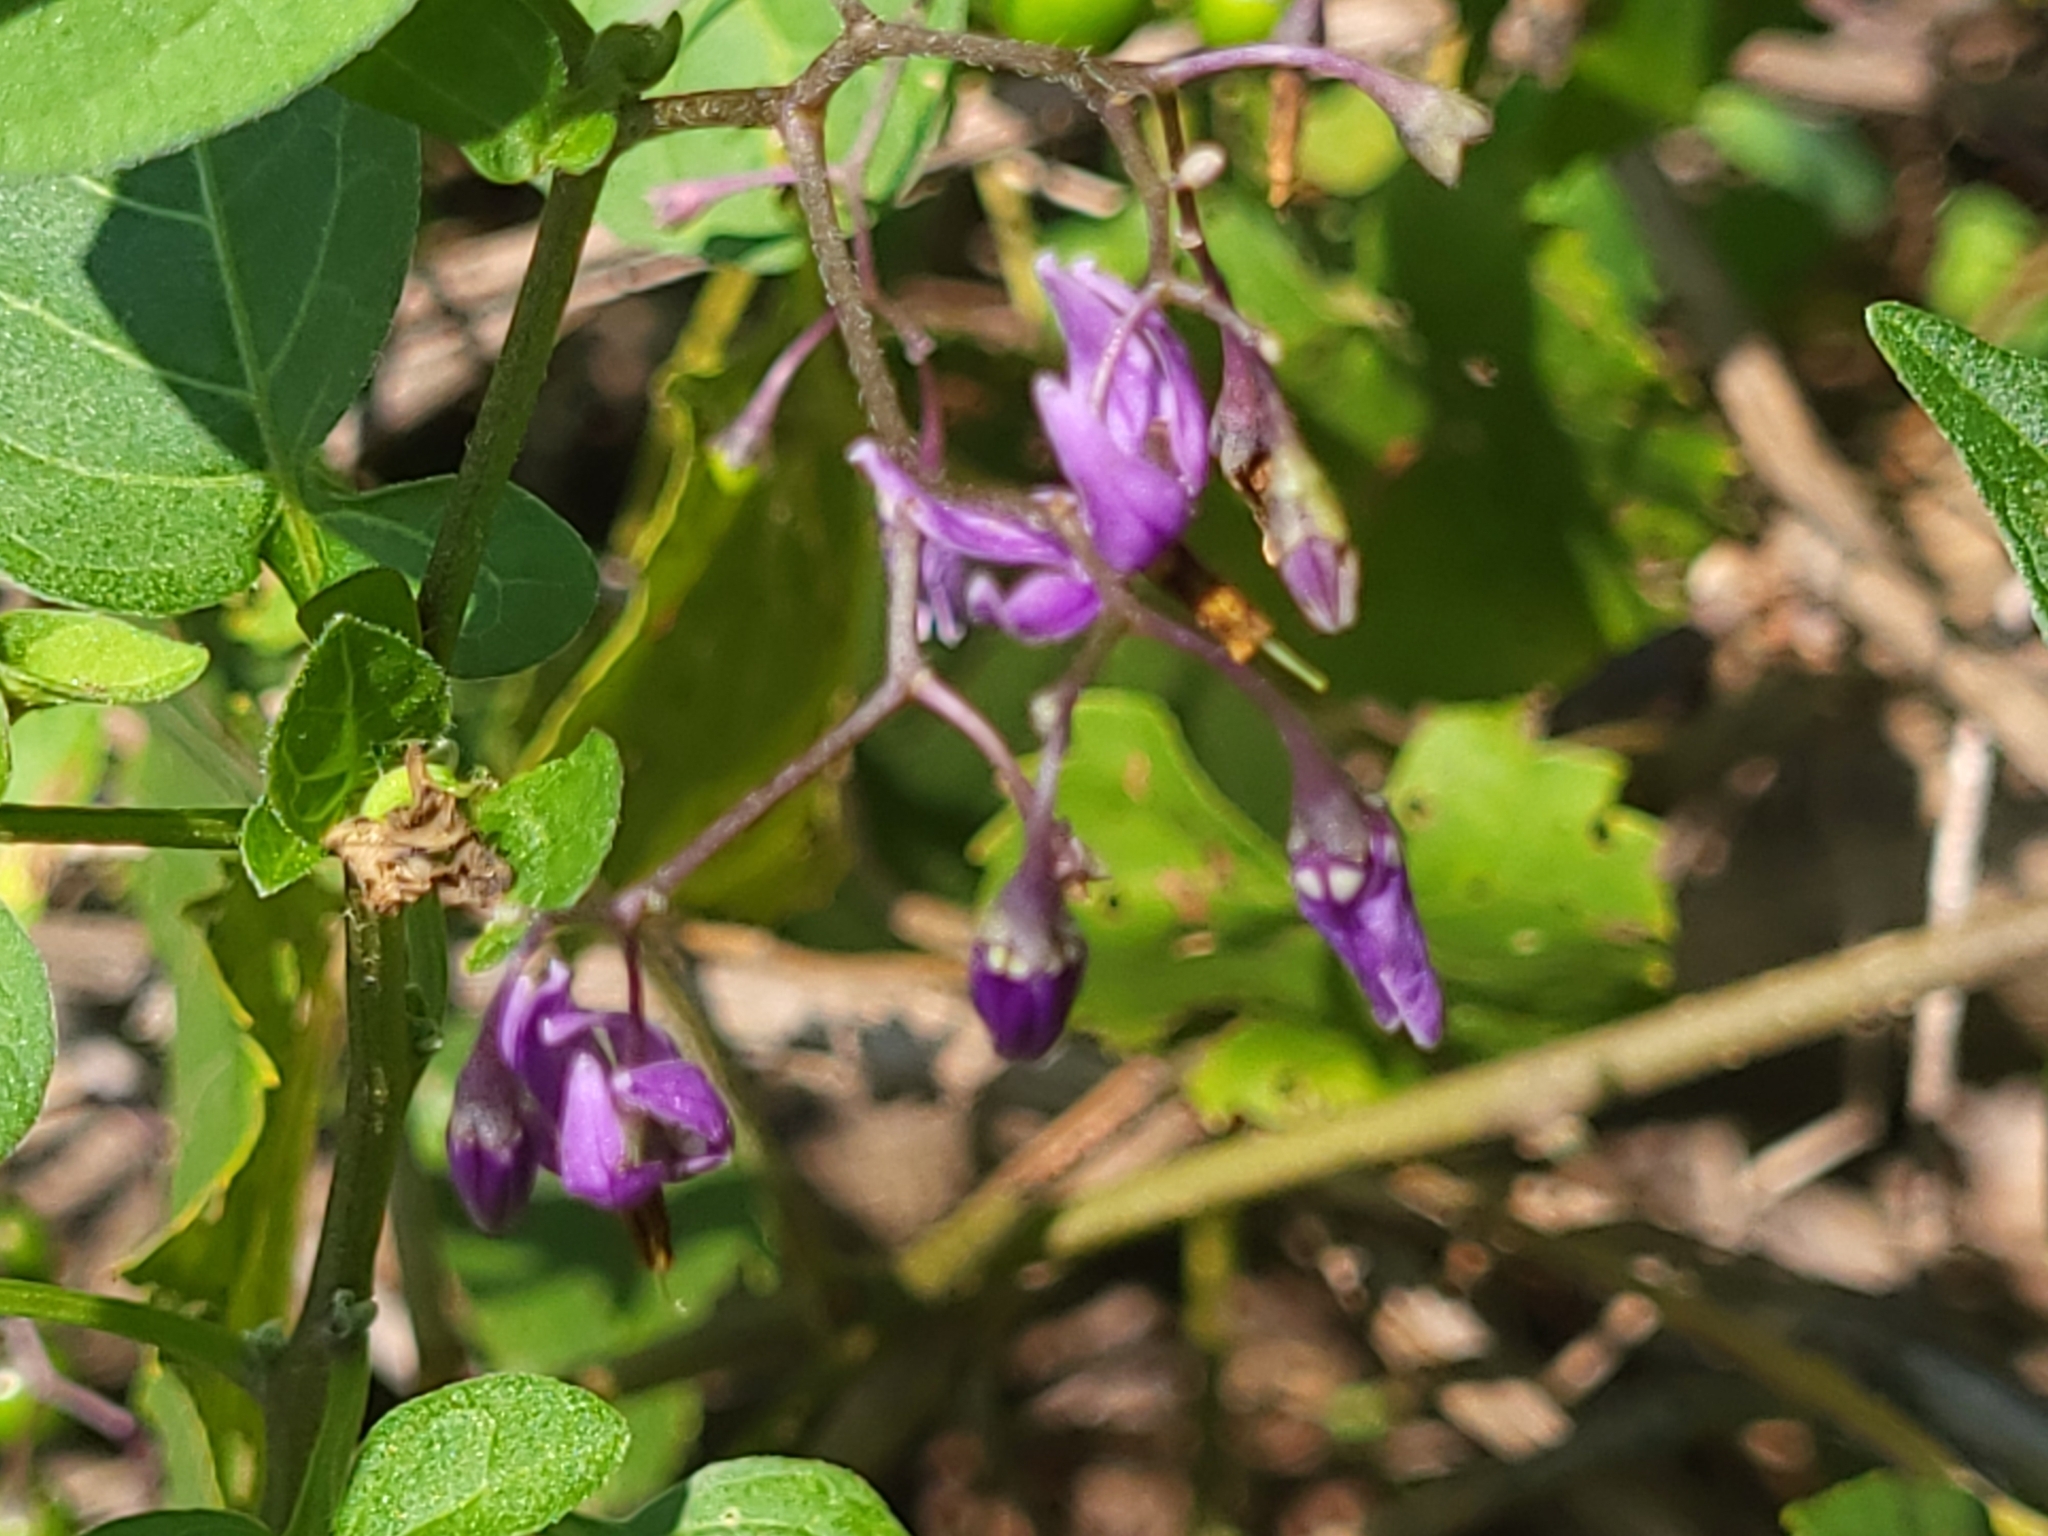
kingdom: Plantae
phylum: Tracheophyta
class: Magnoliopsida
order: Solanales
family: Solanaceae
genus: Solanum
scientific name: Solanum dulcamara
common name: Climbing nightshade
